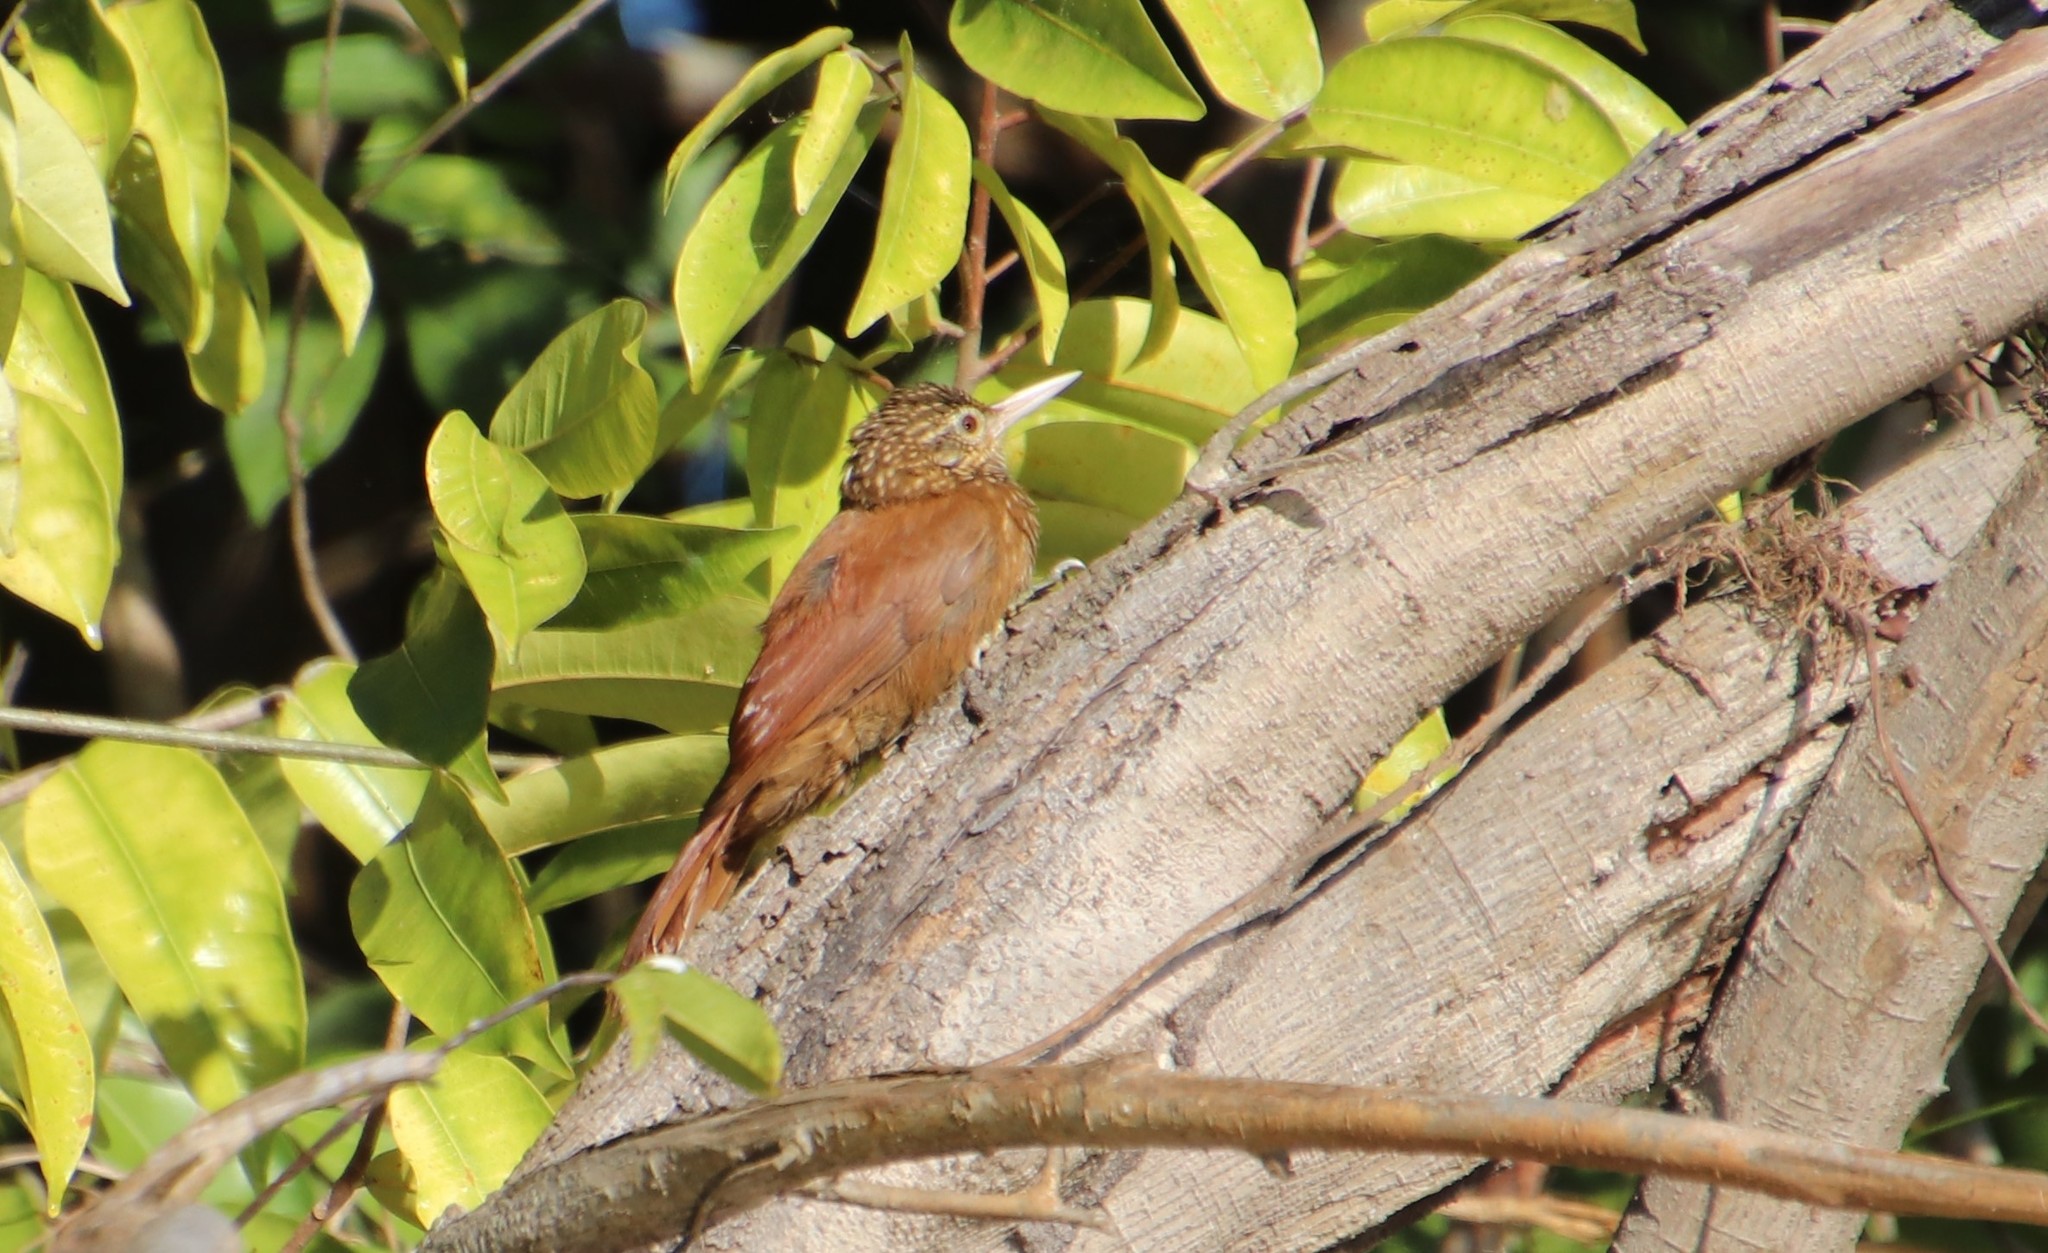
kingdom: Animalia
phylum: Chordata
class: Aves
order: Passeriformes
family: Furnariidae
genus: Xiphorhynchus
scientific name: Xiphorhynchus picus
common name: Straight-billed woodcreeper
